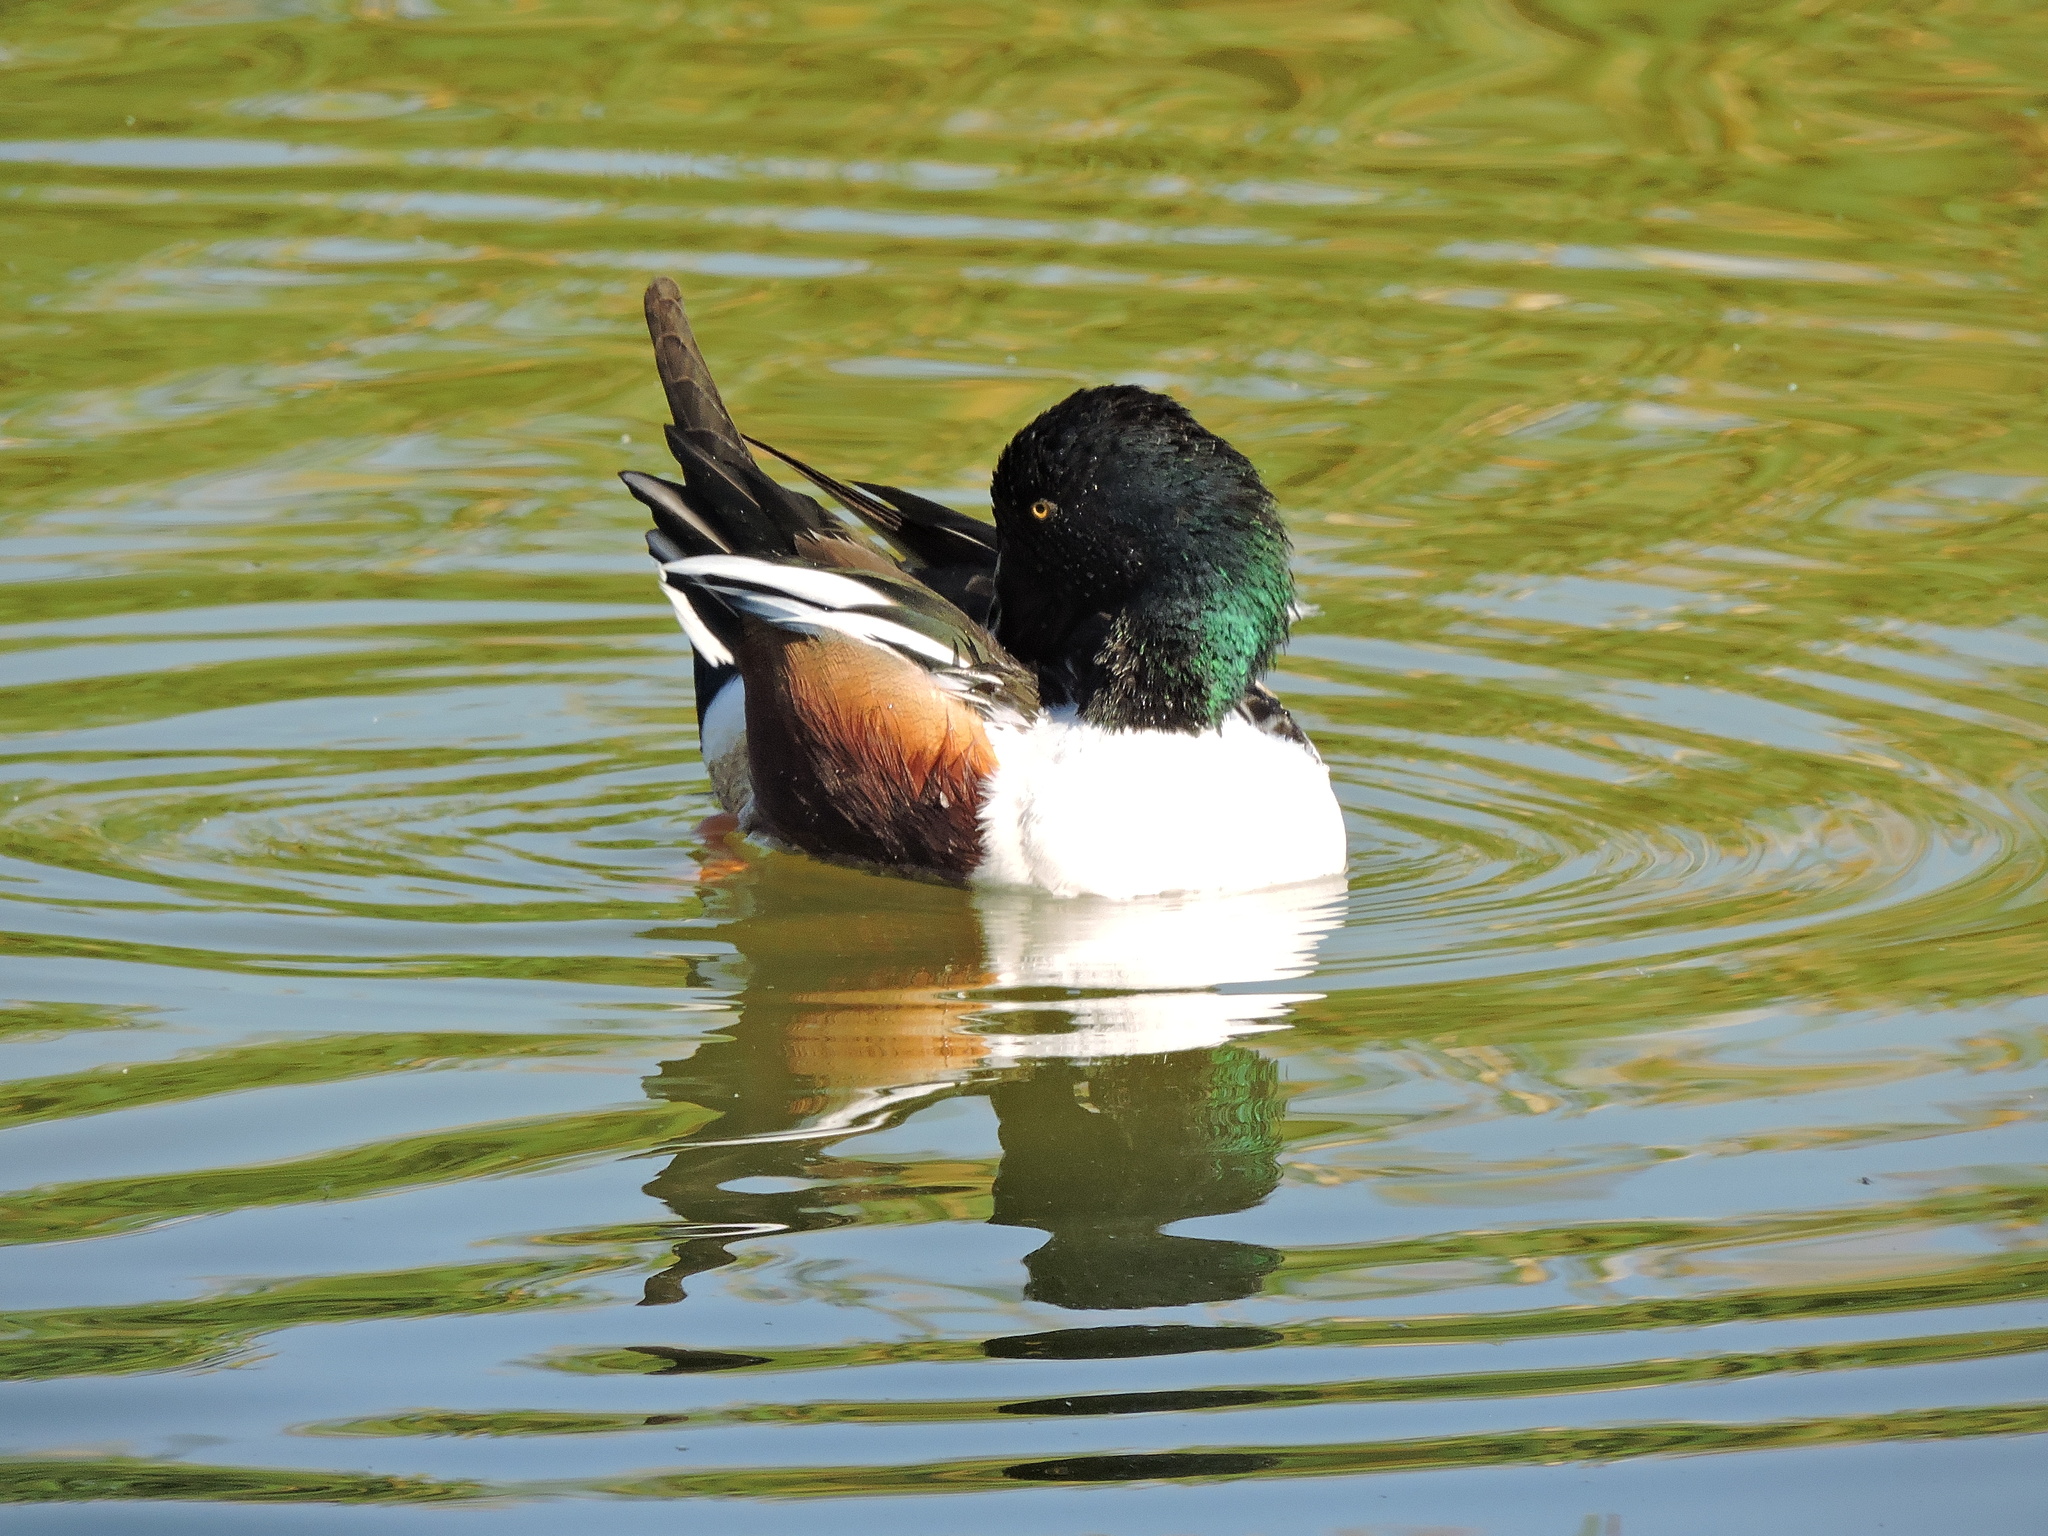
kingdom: Animalia
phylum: Chordata
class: Aves
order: Anseriformes
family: Anatidae
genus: Spatula
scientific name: Spatula clypeata
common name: Northern shoveler
